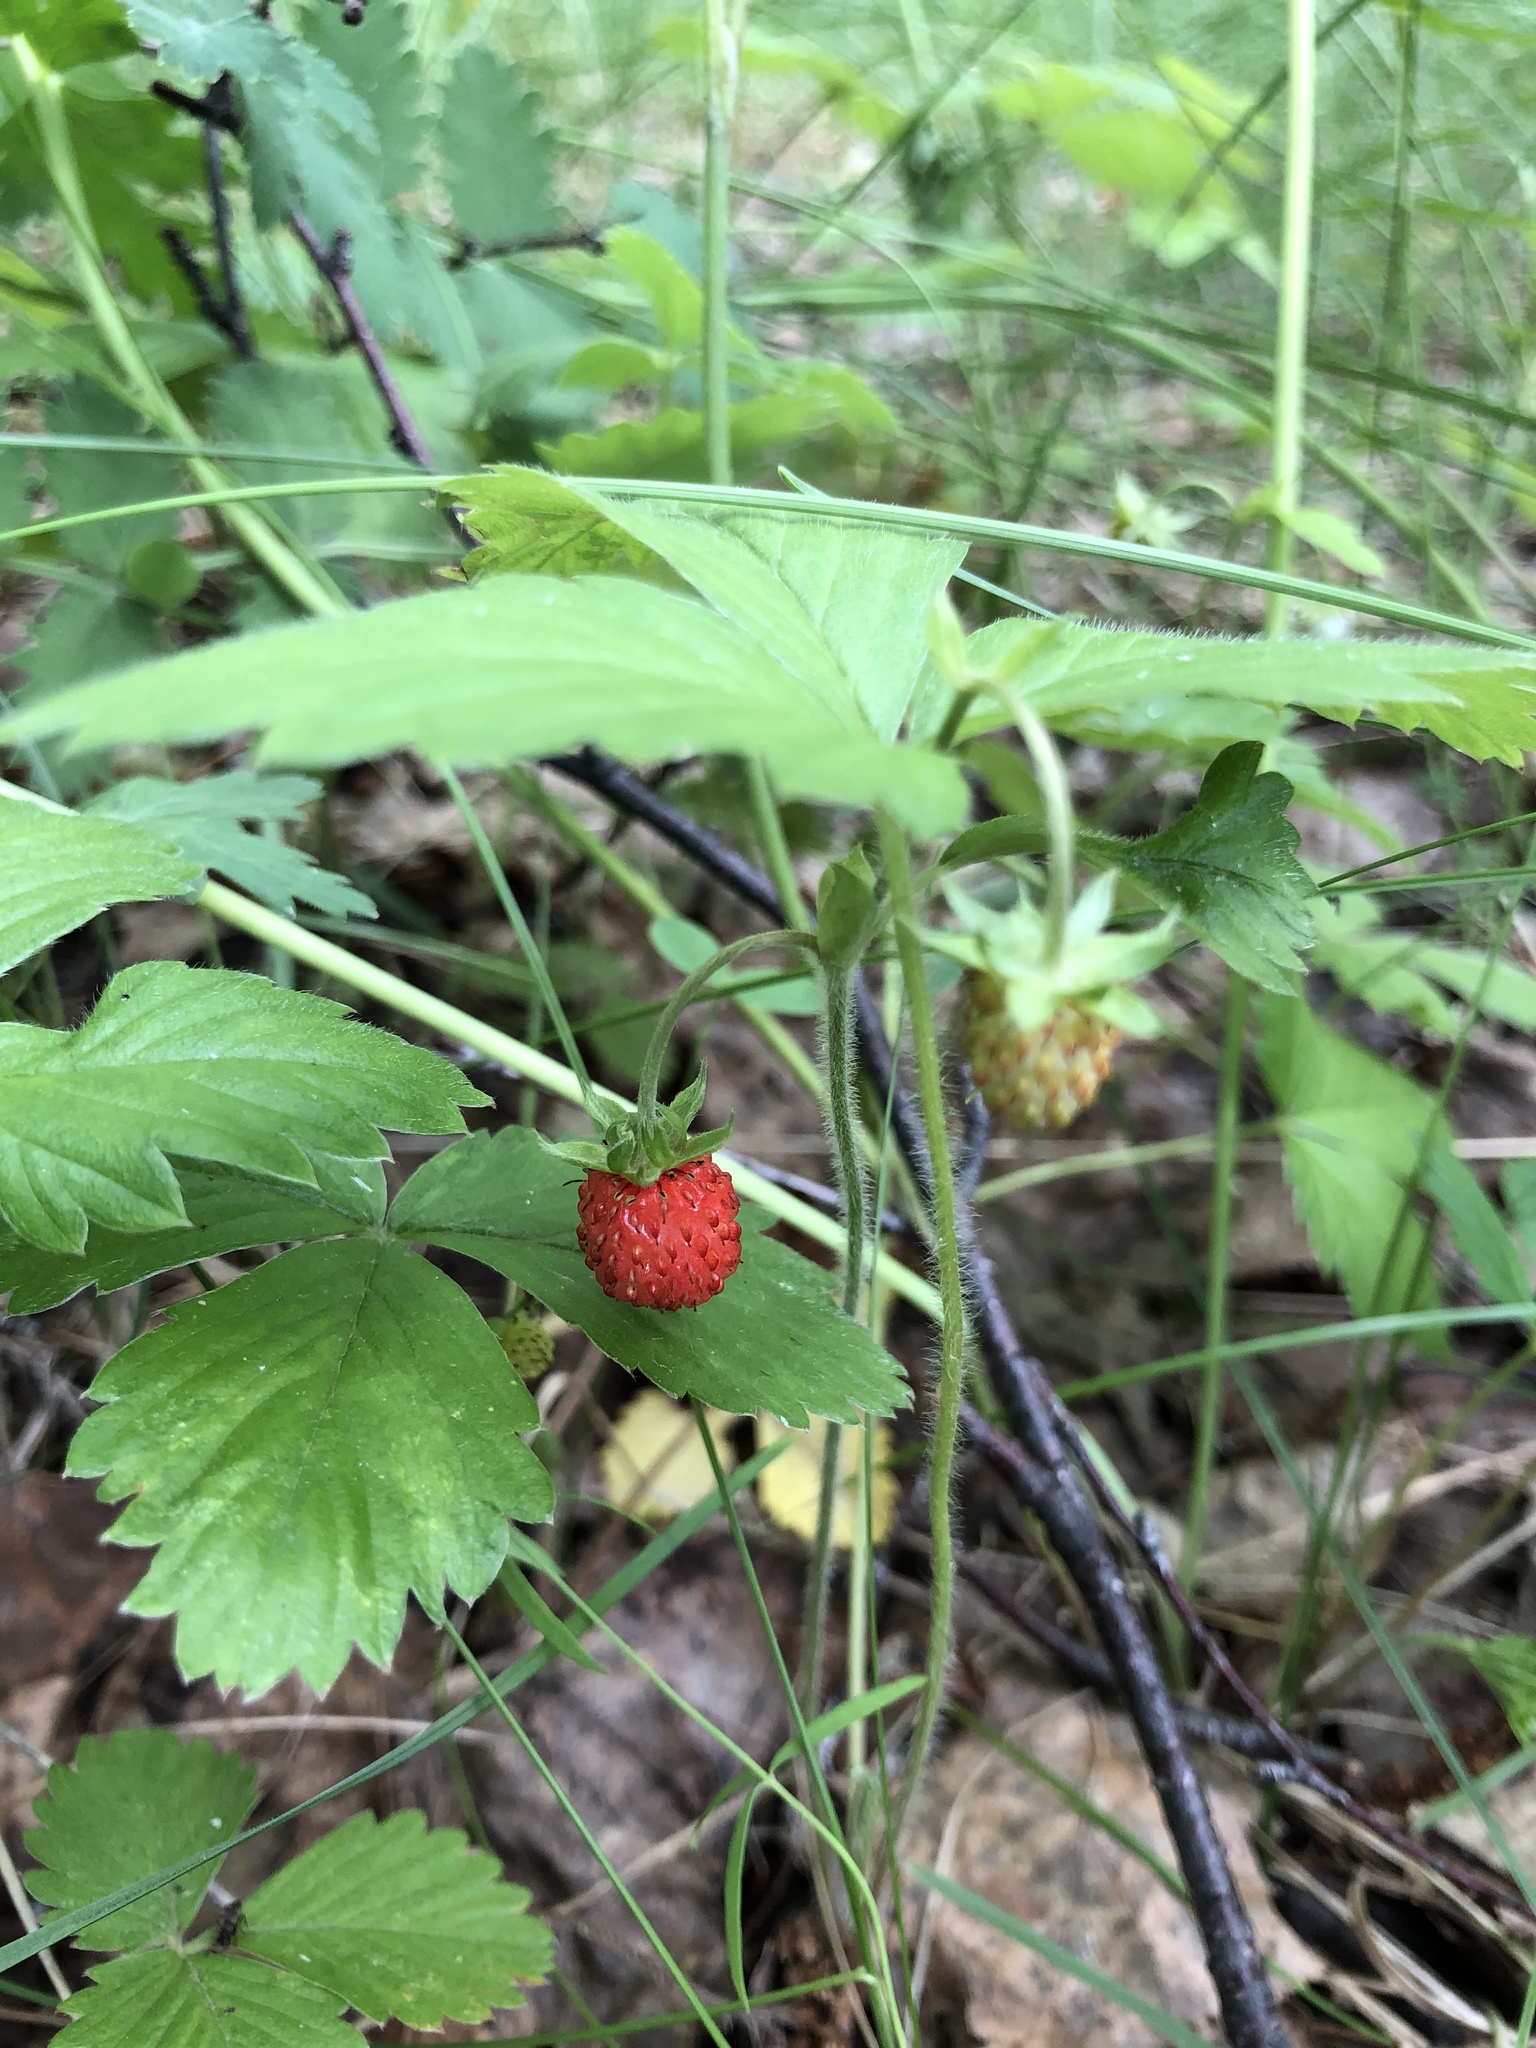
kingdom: Plantae
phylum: Tracheophyta
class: Magnoliopsida
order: Rosales
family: Rosaceae
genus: Fragaria
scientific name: Fragaria vesca
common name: Wild strawberry
